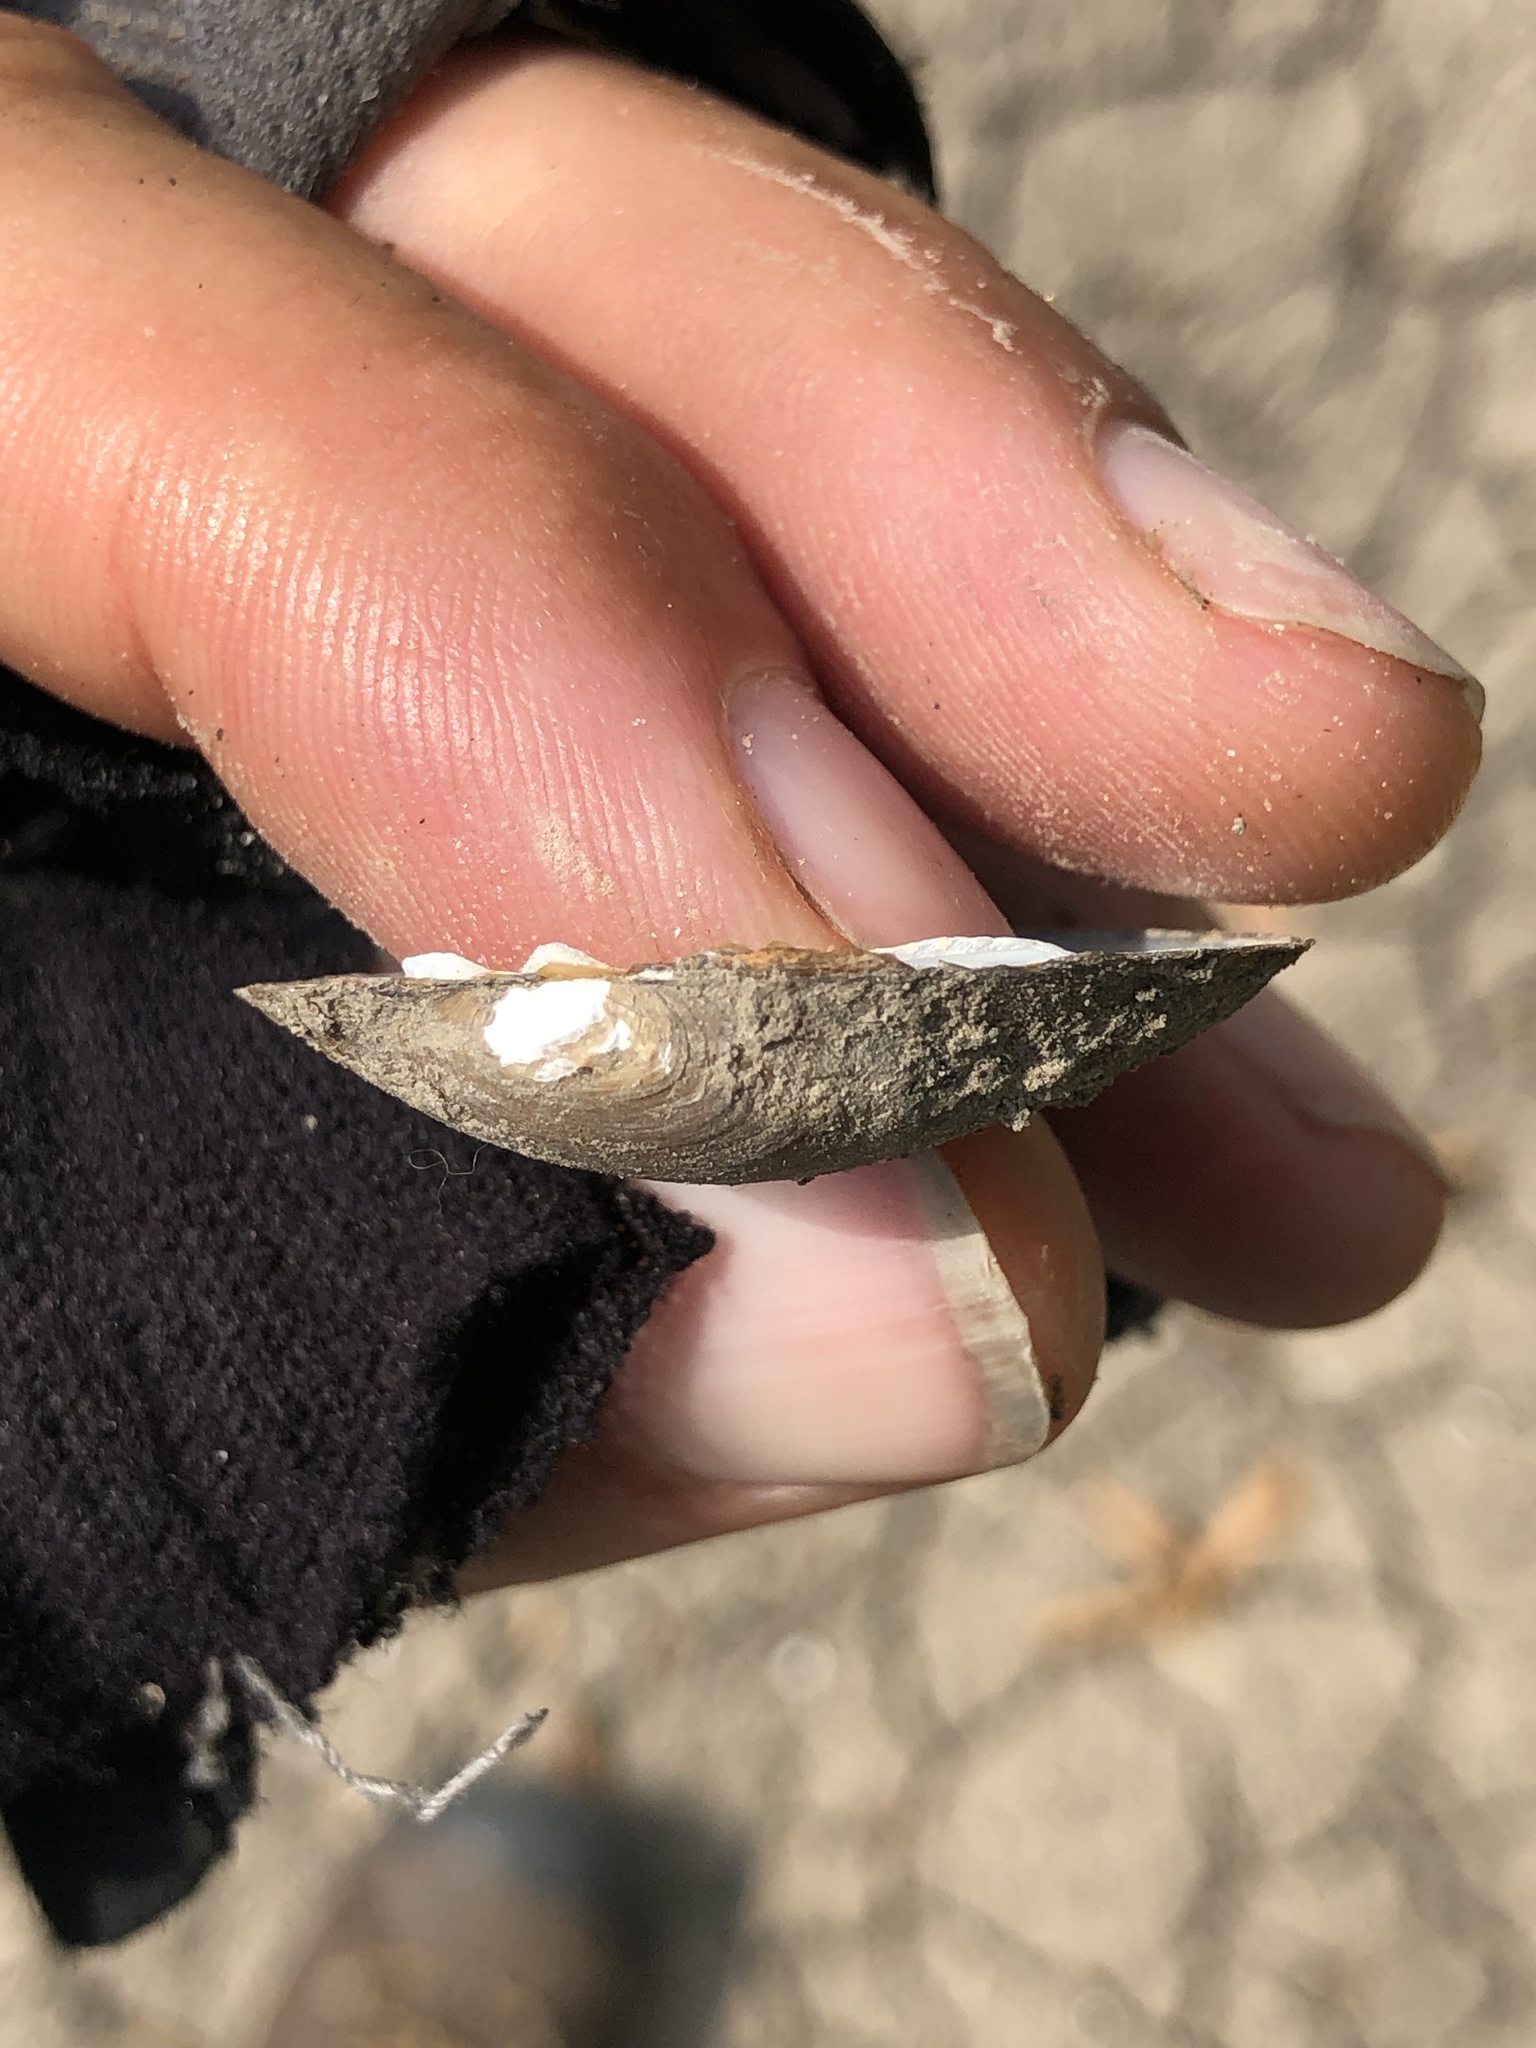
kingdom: Animalia
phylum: Mollusca
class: Bivalvia
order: Unionida
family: Unionidae
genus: Toxolasma
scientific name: Toxolasma texasiense
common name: Texas lilliput
